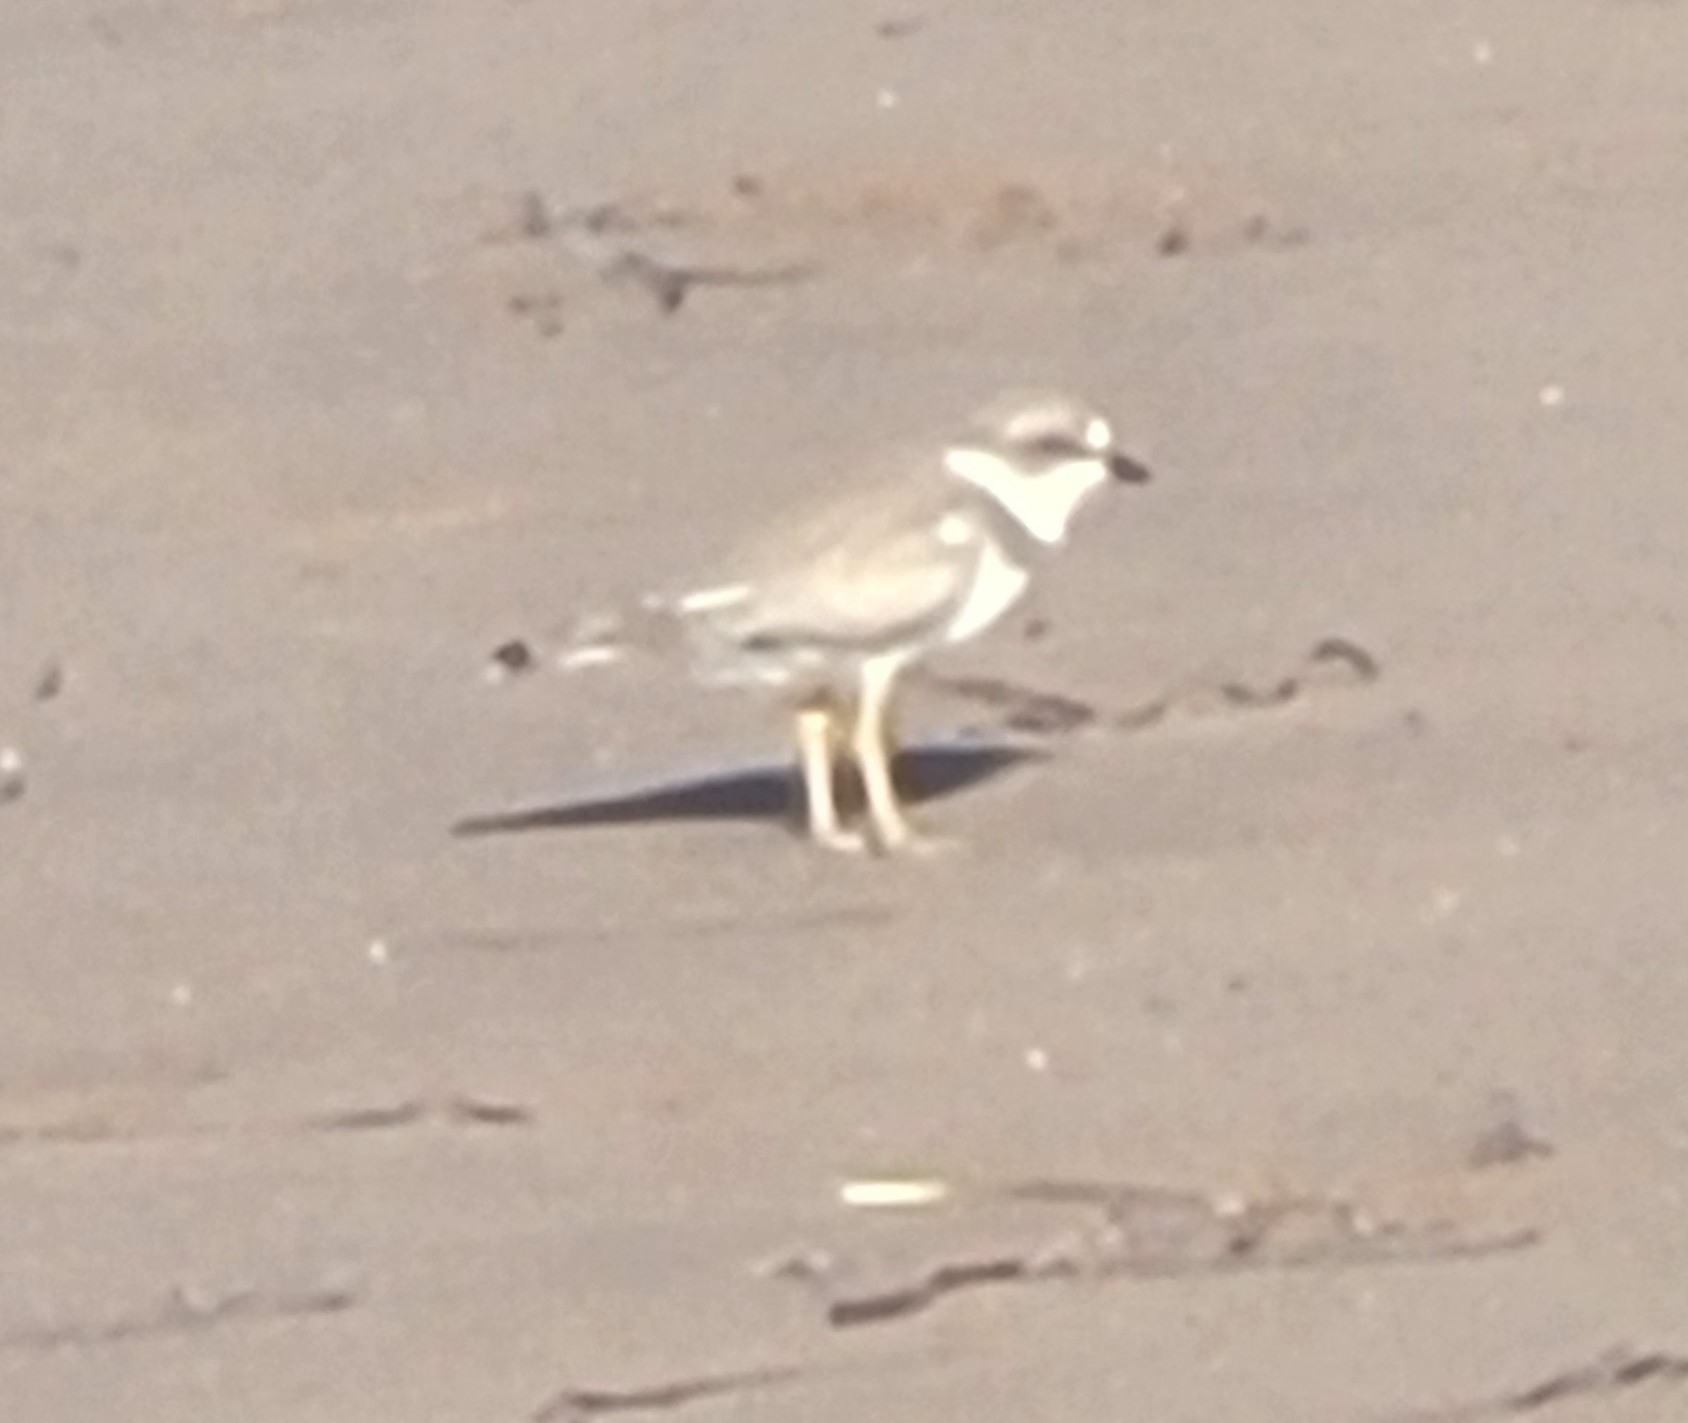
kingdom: Animalia
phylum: Chordata
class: Aves
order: Charadriiformes
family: Charadriidae
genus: Charadrius
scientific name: Charadrius semipalmatus
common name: Semipalmated plover
